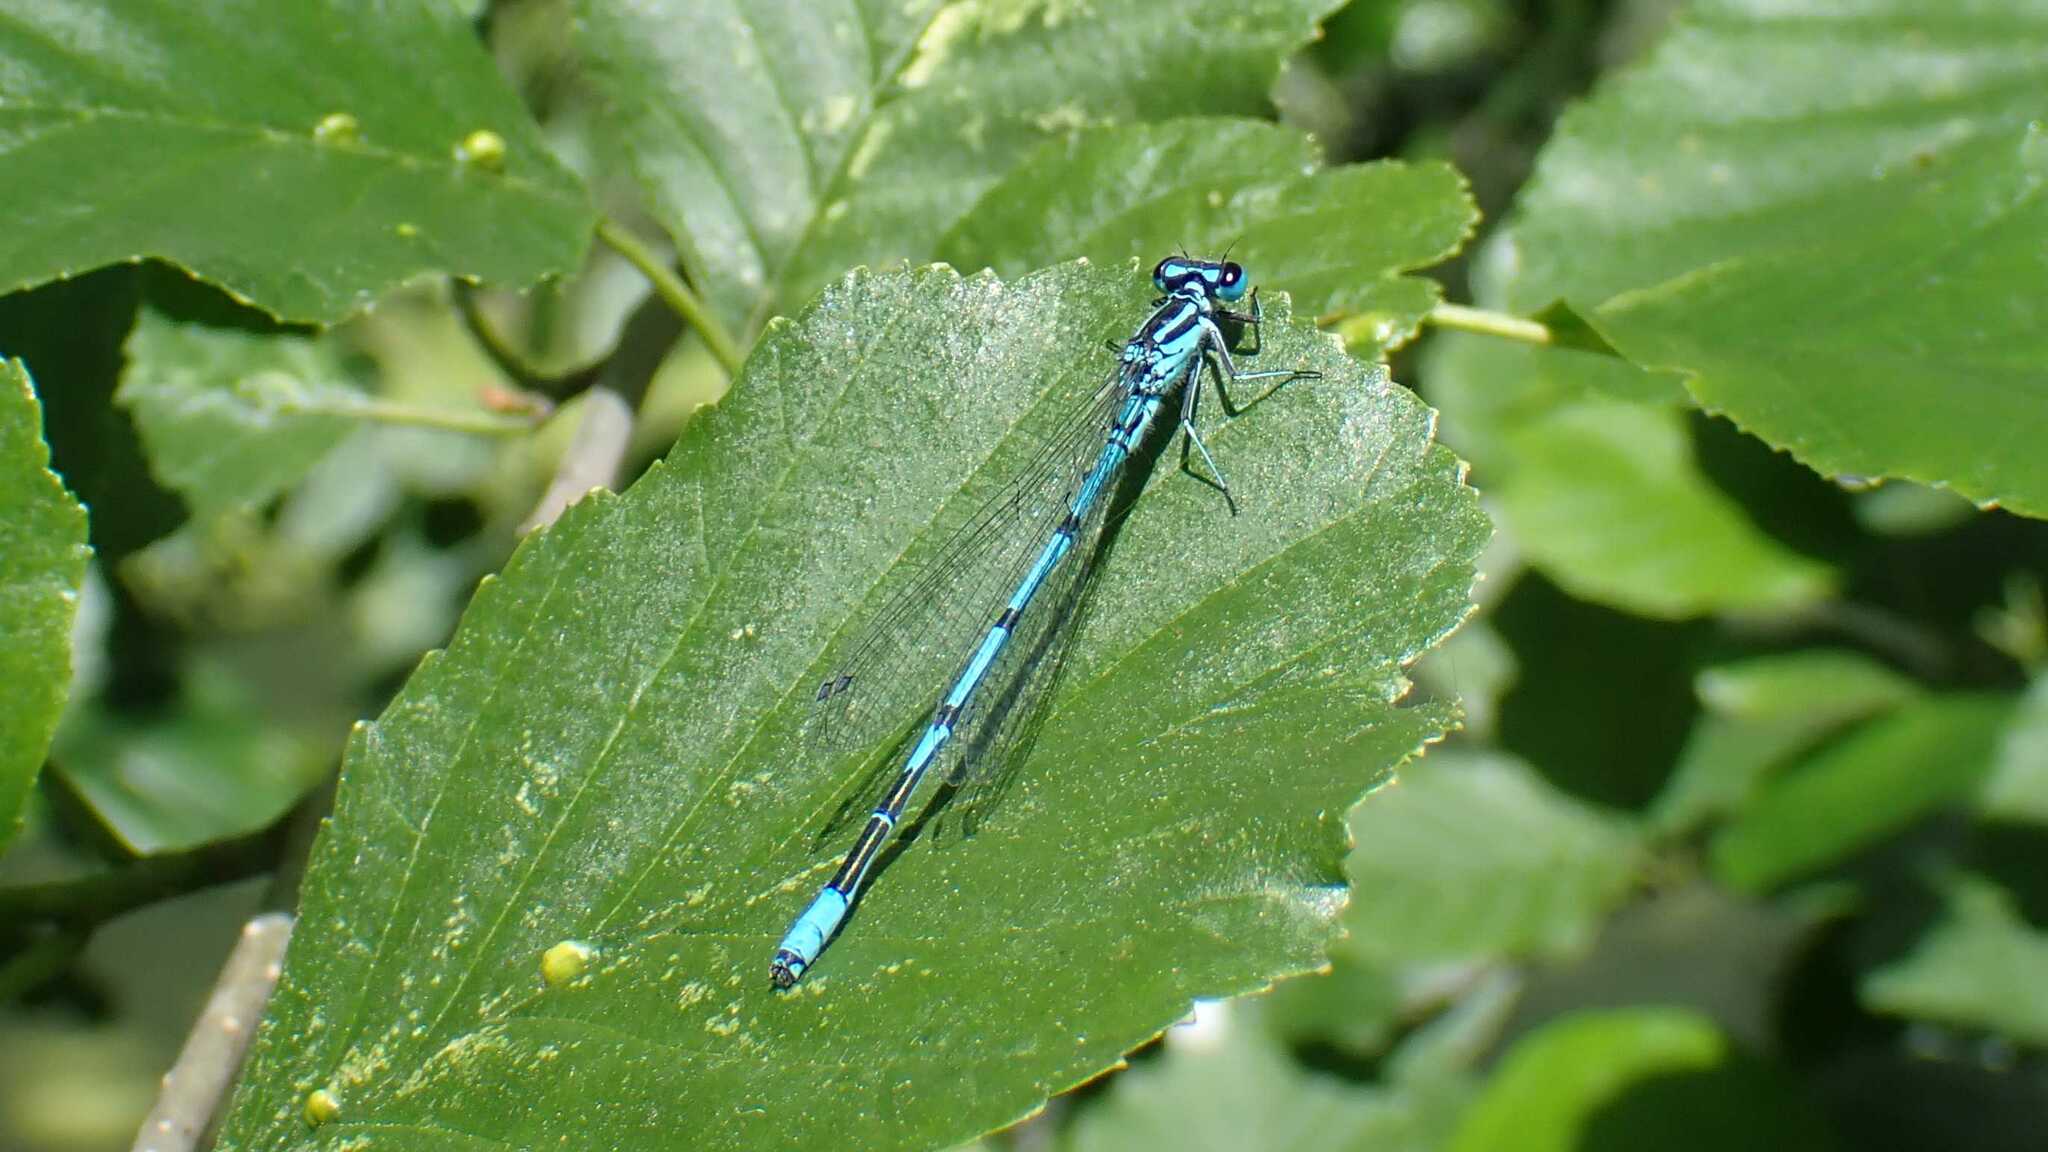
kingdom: Animalia
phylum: Arthropoda
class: Insecta
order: Odonata
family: Coenagrionidae
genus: Coenagrion
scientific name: Coenagrion puella
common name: Azure damselfly
